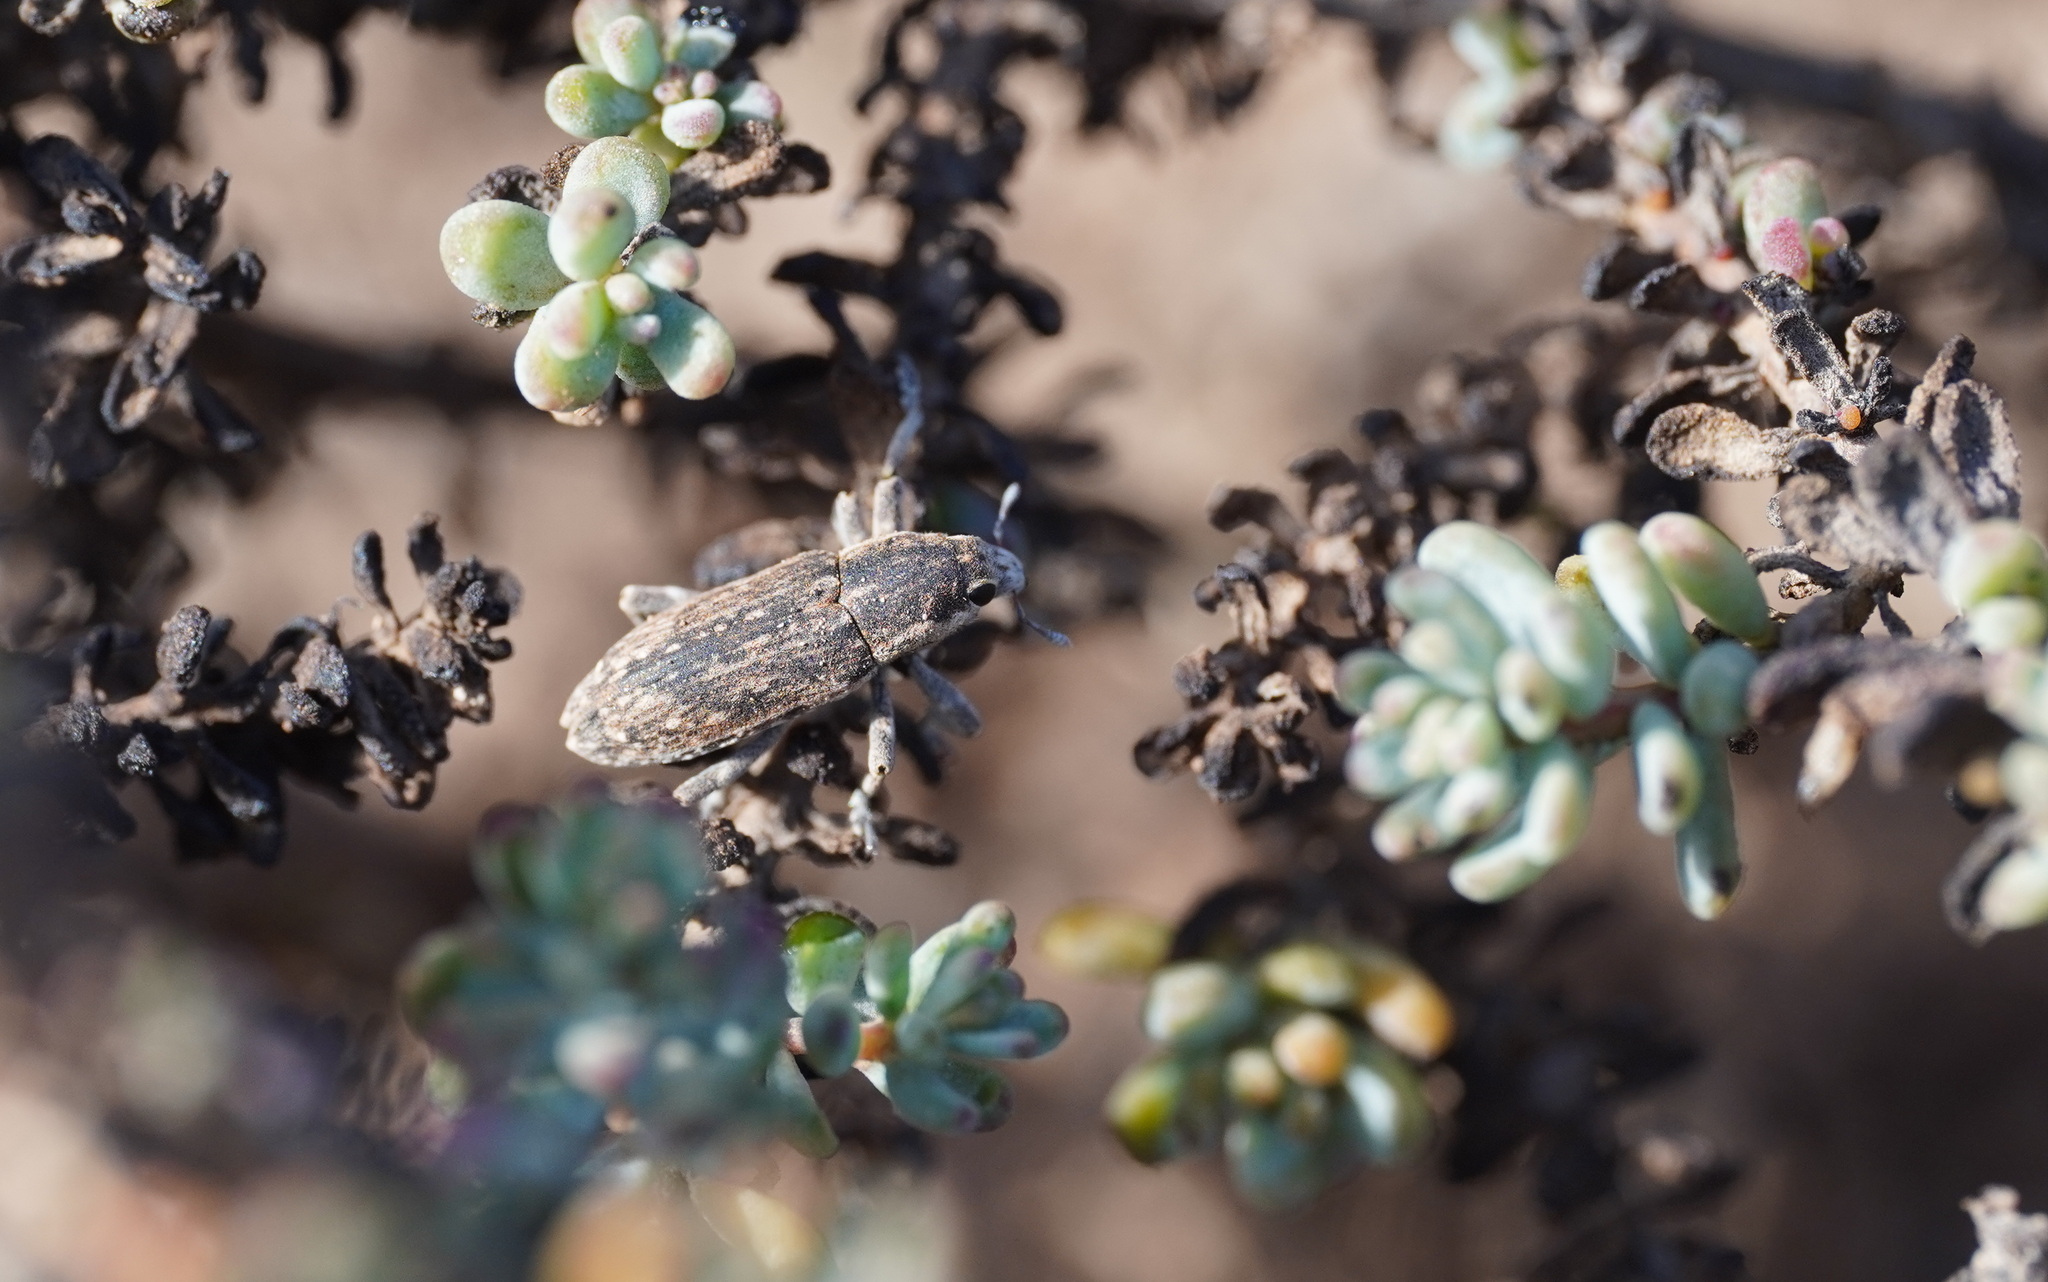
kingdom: Animalia
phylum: Arthropoda
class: Insecta
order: Coleoptera
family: Curculionidae
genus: Temnorhinus
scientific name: Temnorhinus mixtus
